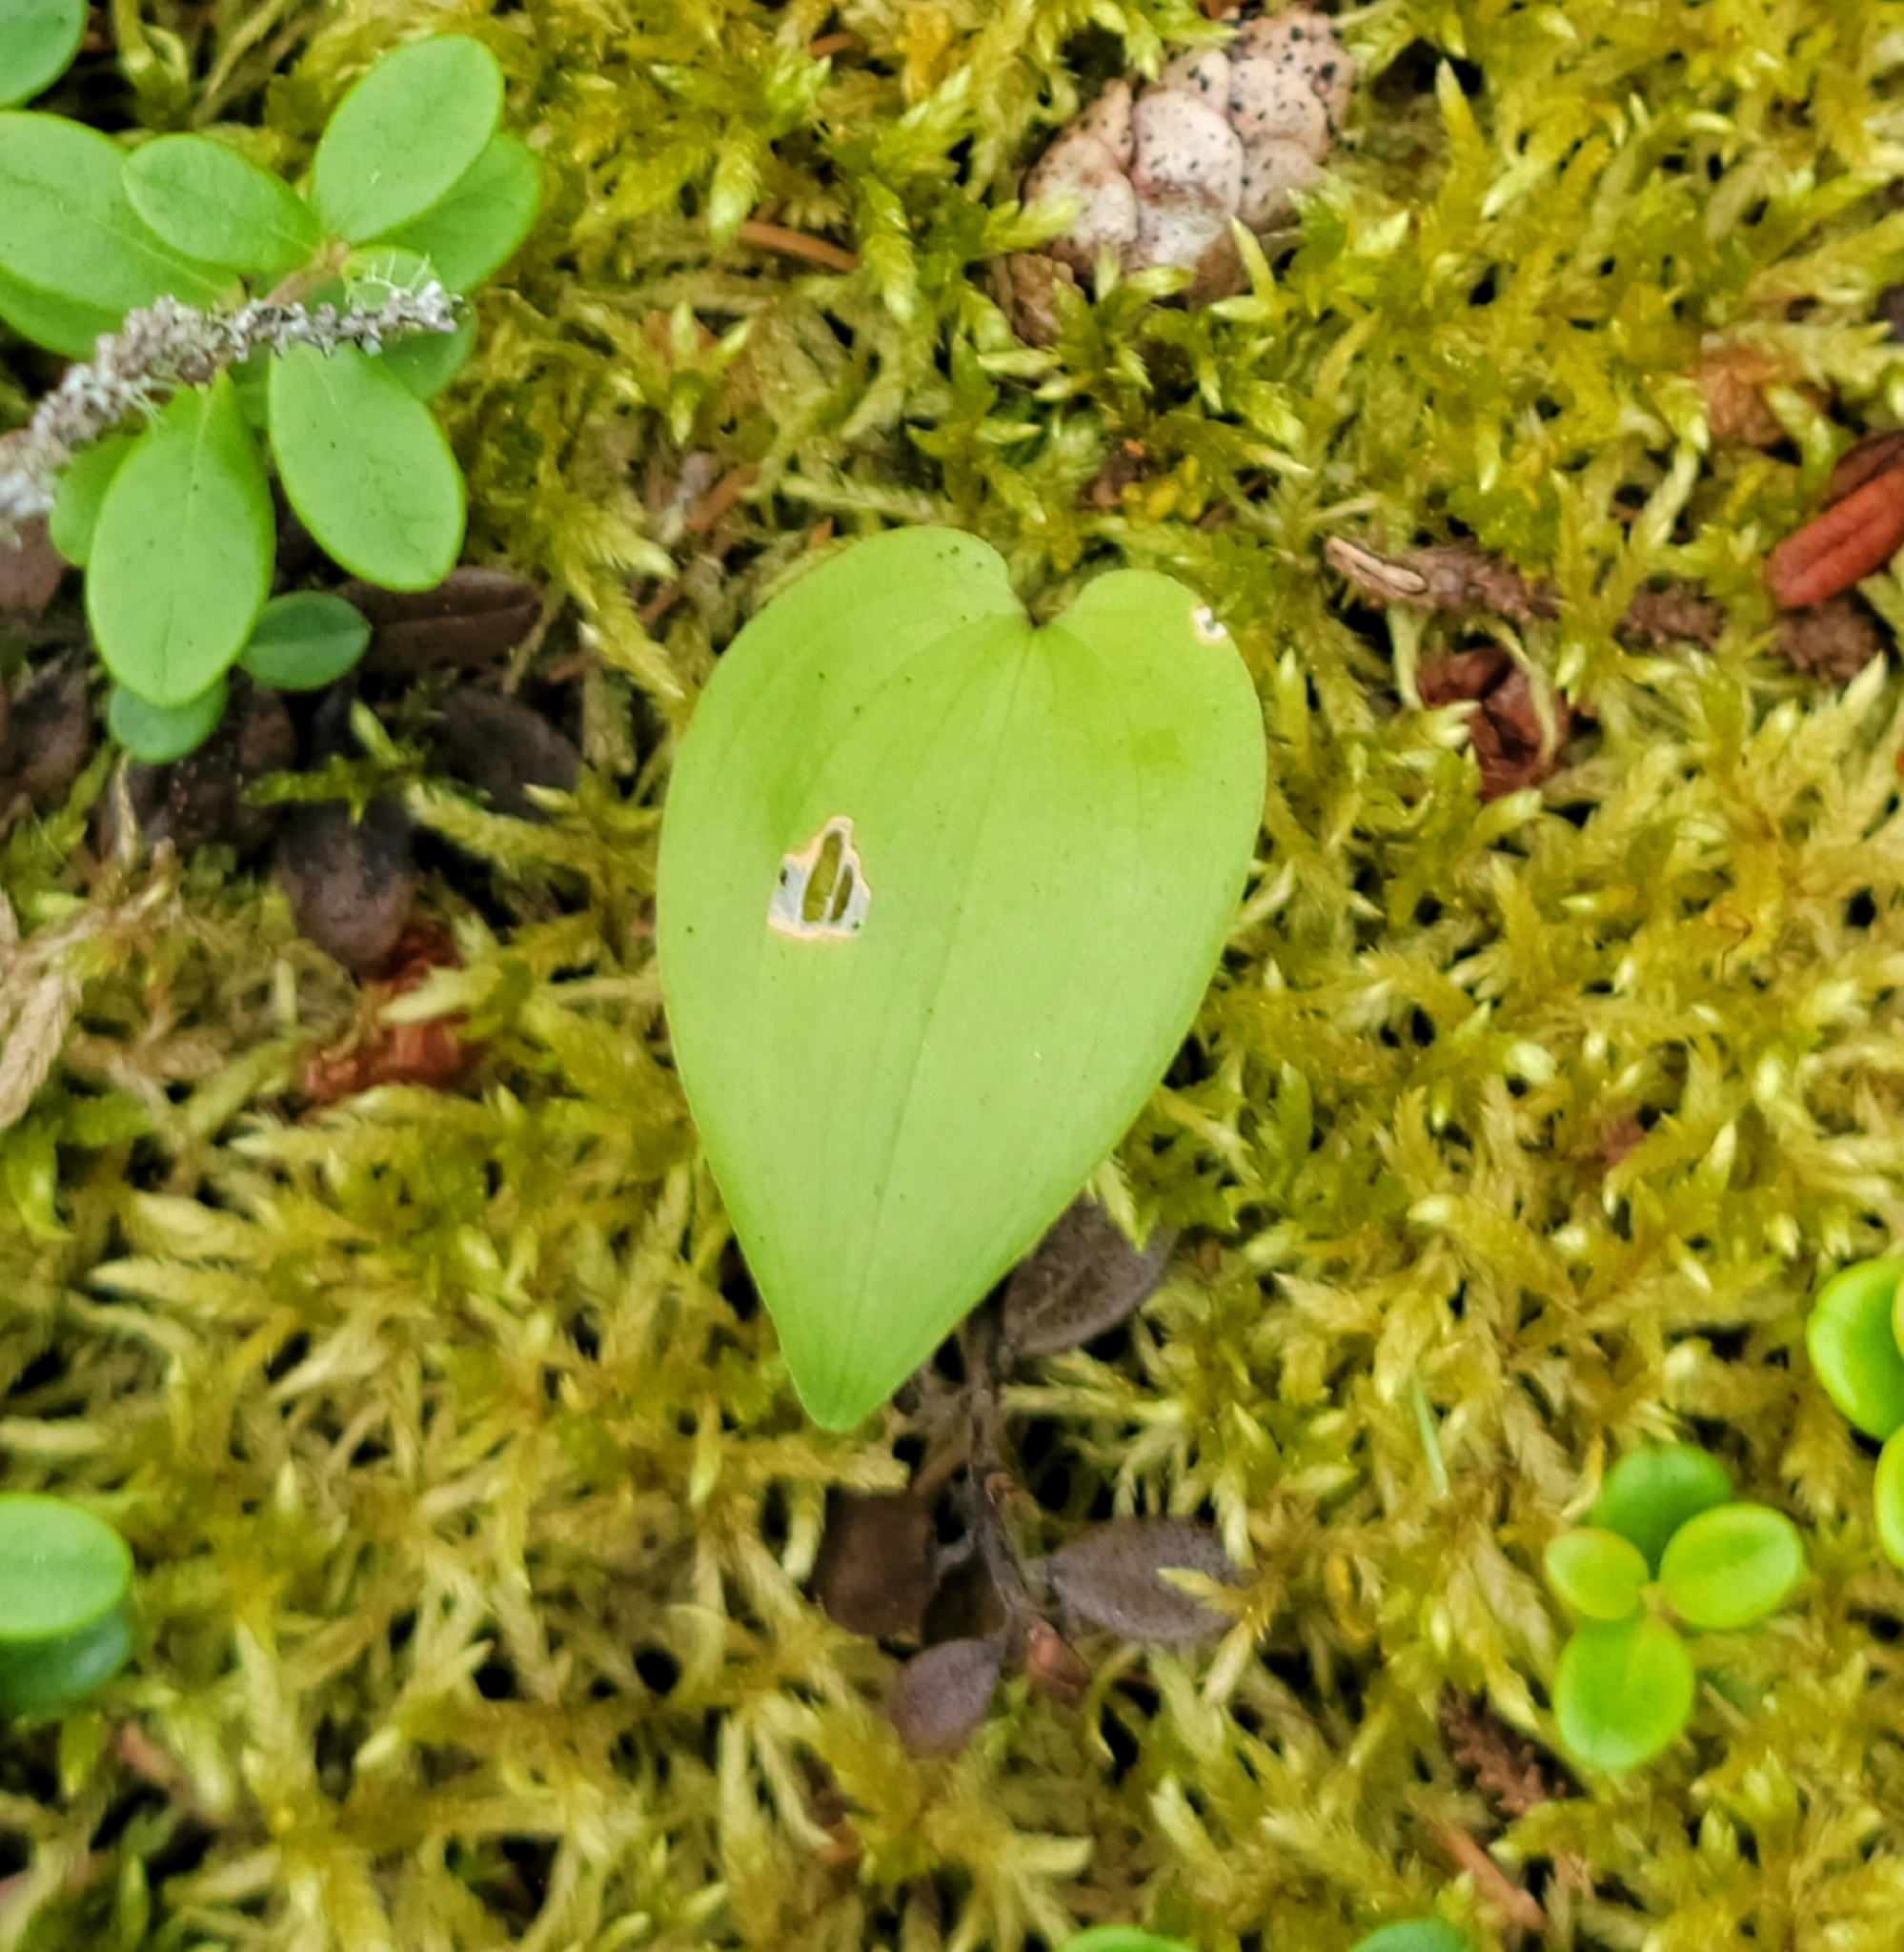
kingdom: Plantae
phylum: Tracheophyta
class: Liliopsida
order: Asparagales
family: Asparagaceae
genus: Maianthemum
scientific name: Maianthemum canadense
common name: False lily-of-the-valley
